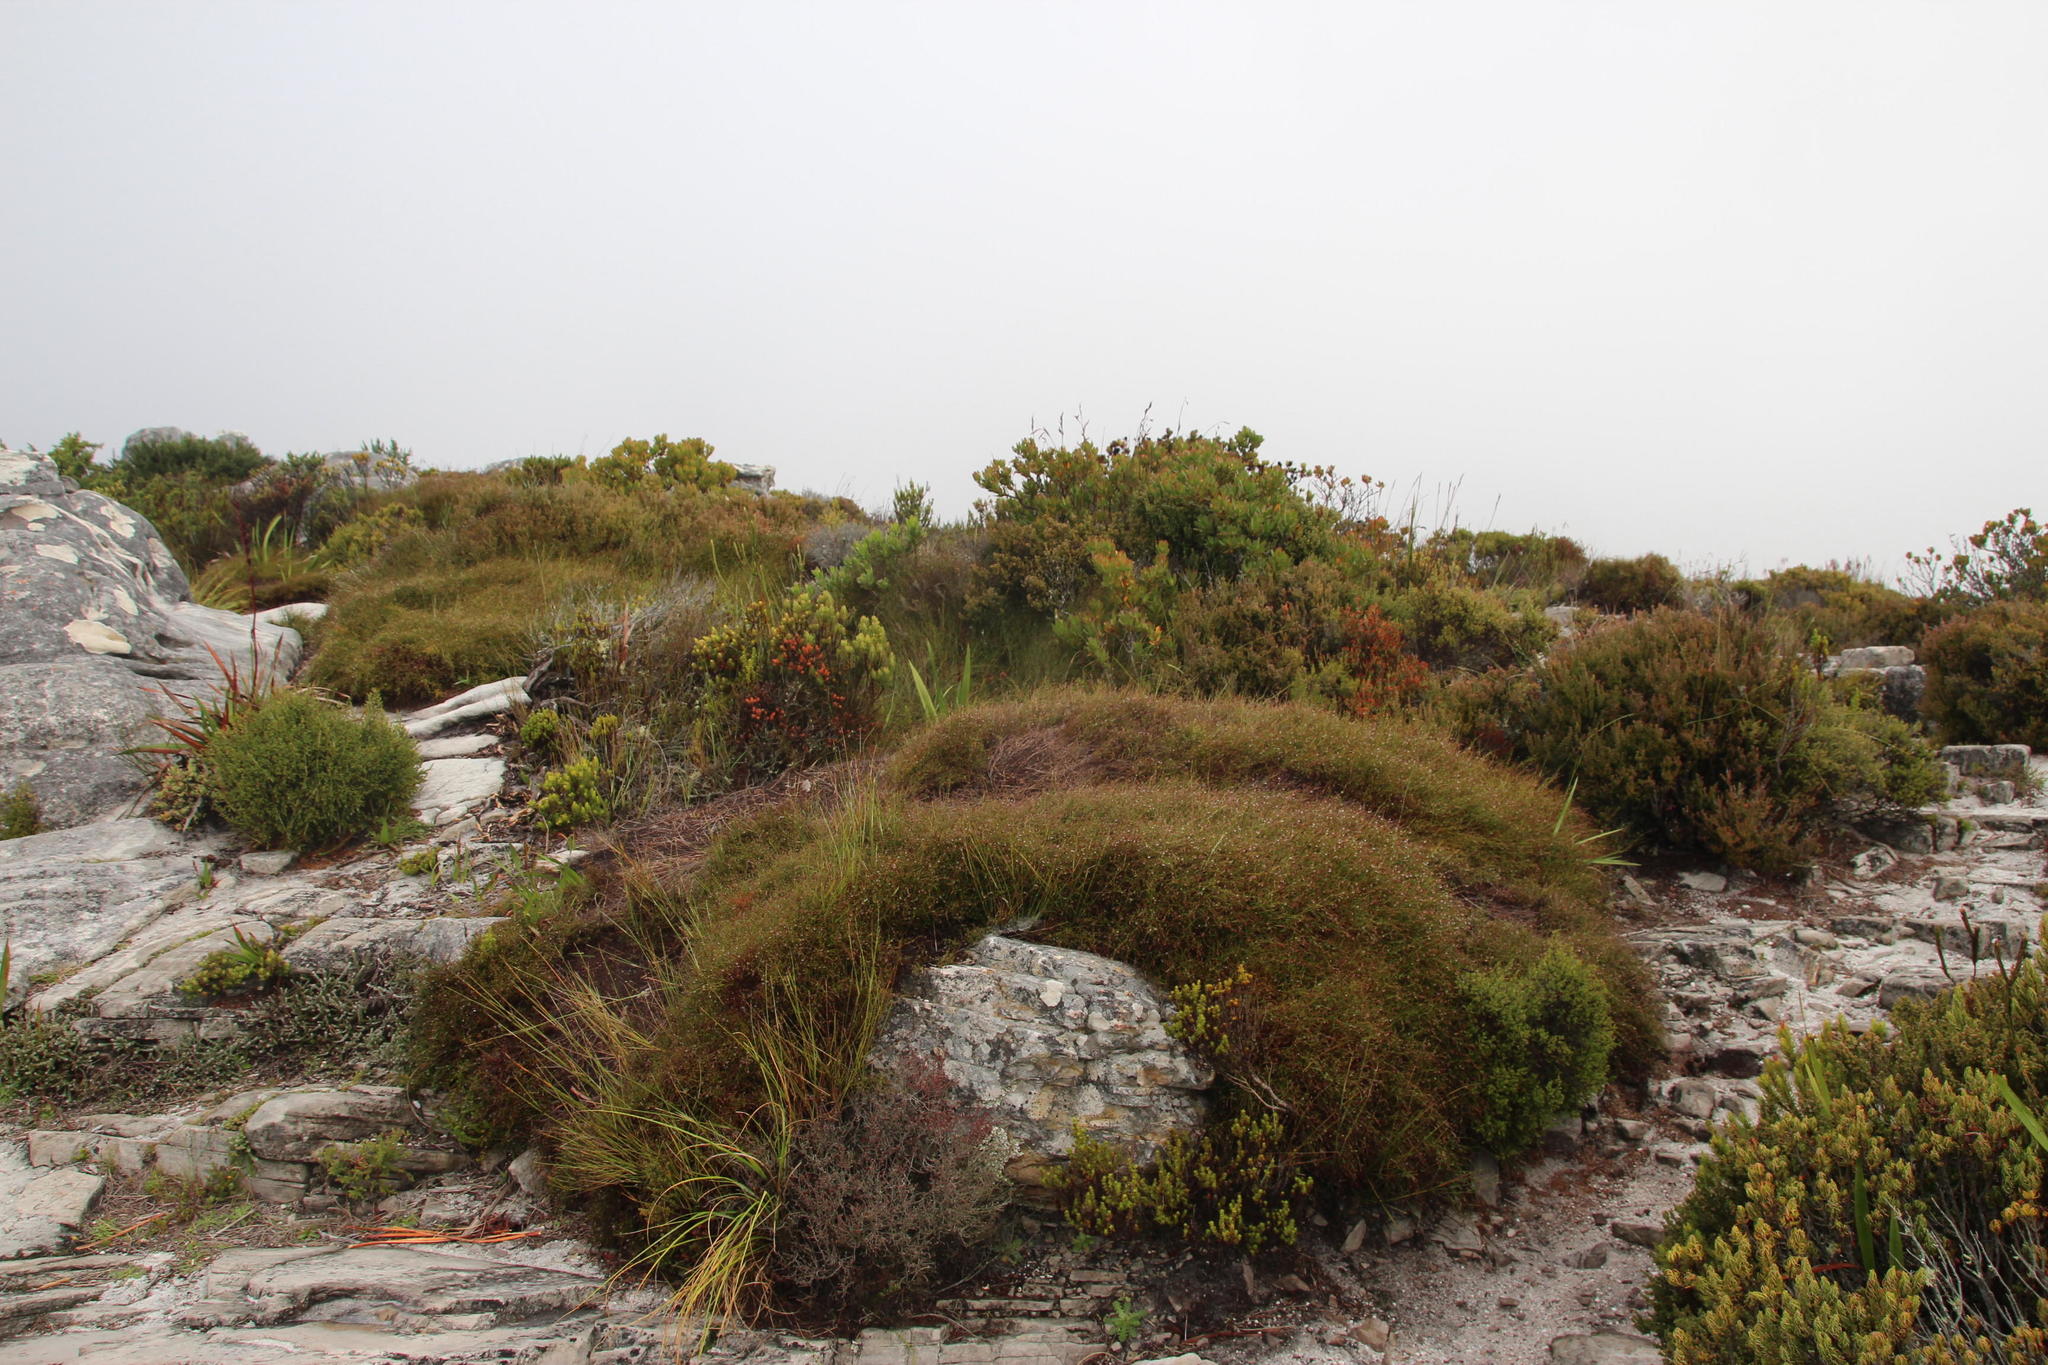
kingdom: Plantae
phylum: Tracheophyta
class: Liliopsida
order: Poales
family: Restionaceae
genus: Restio
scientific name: Restio perplexus
